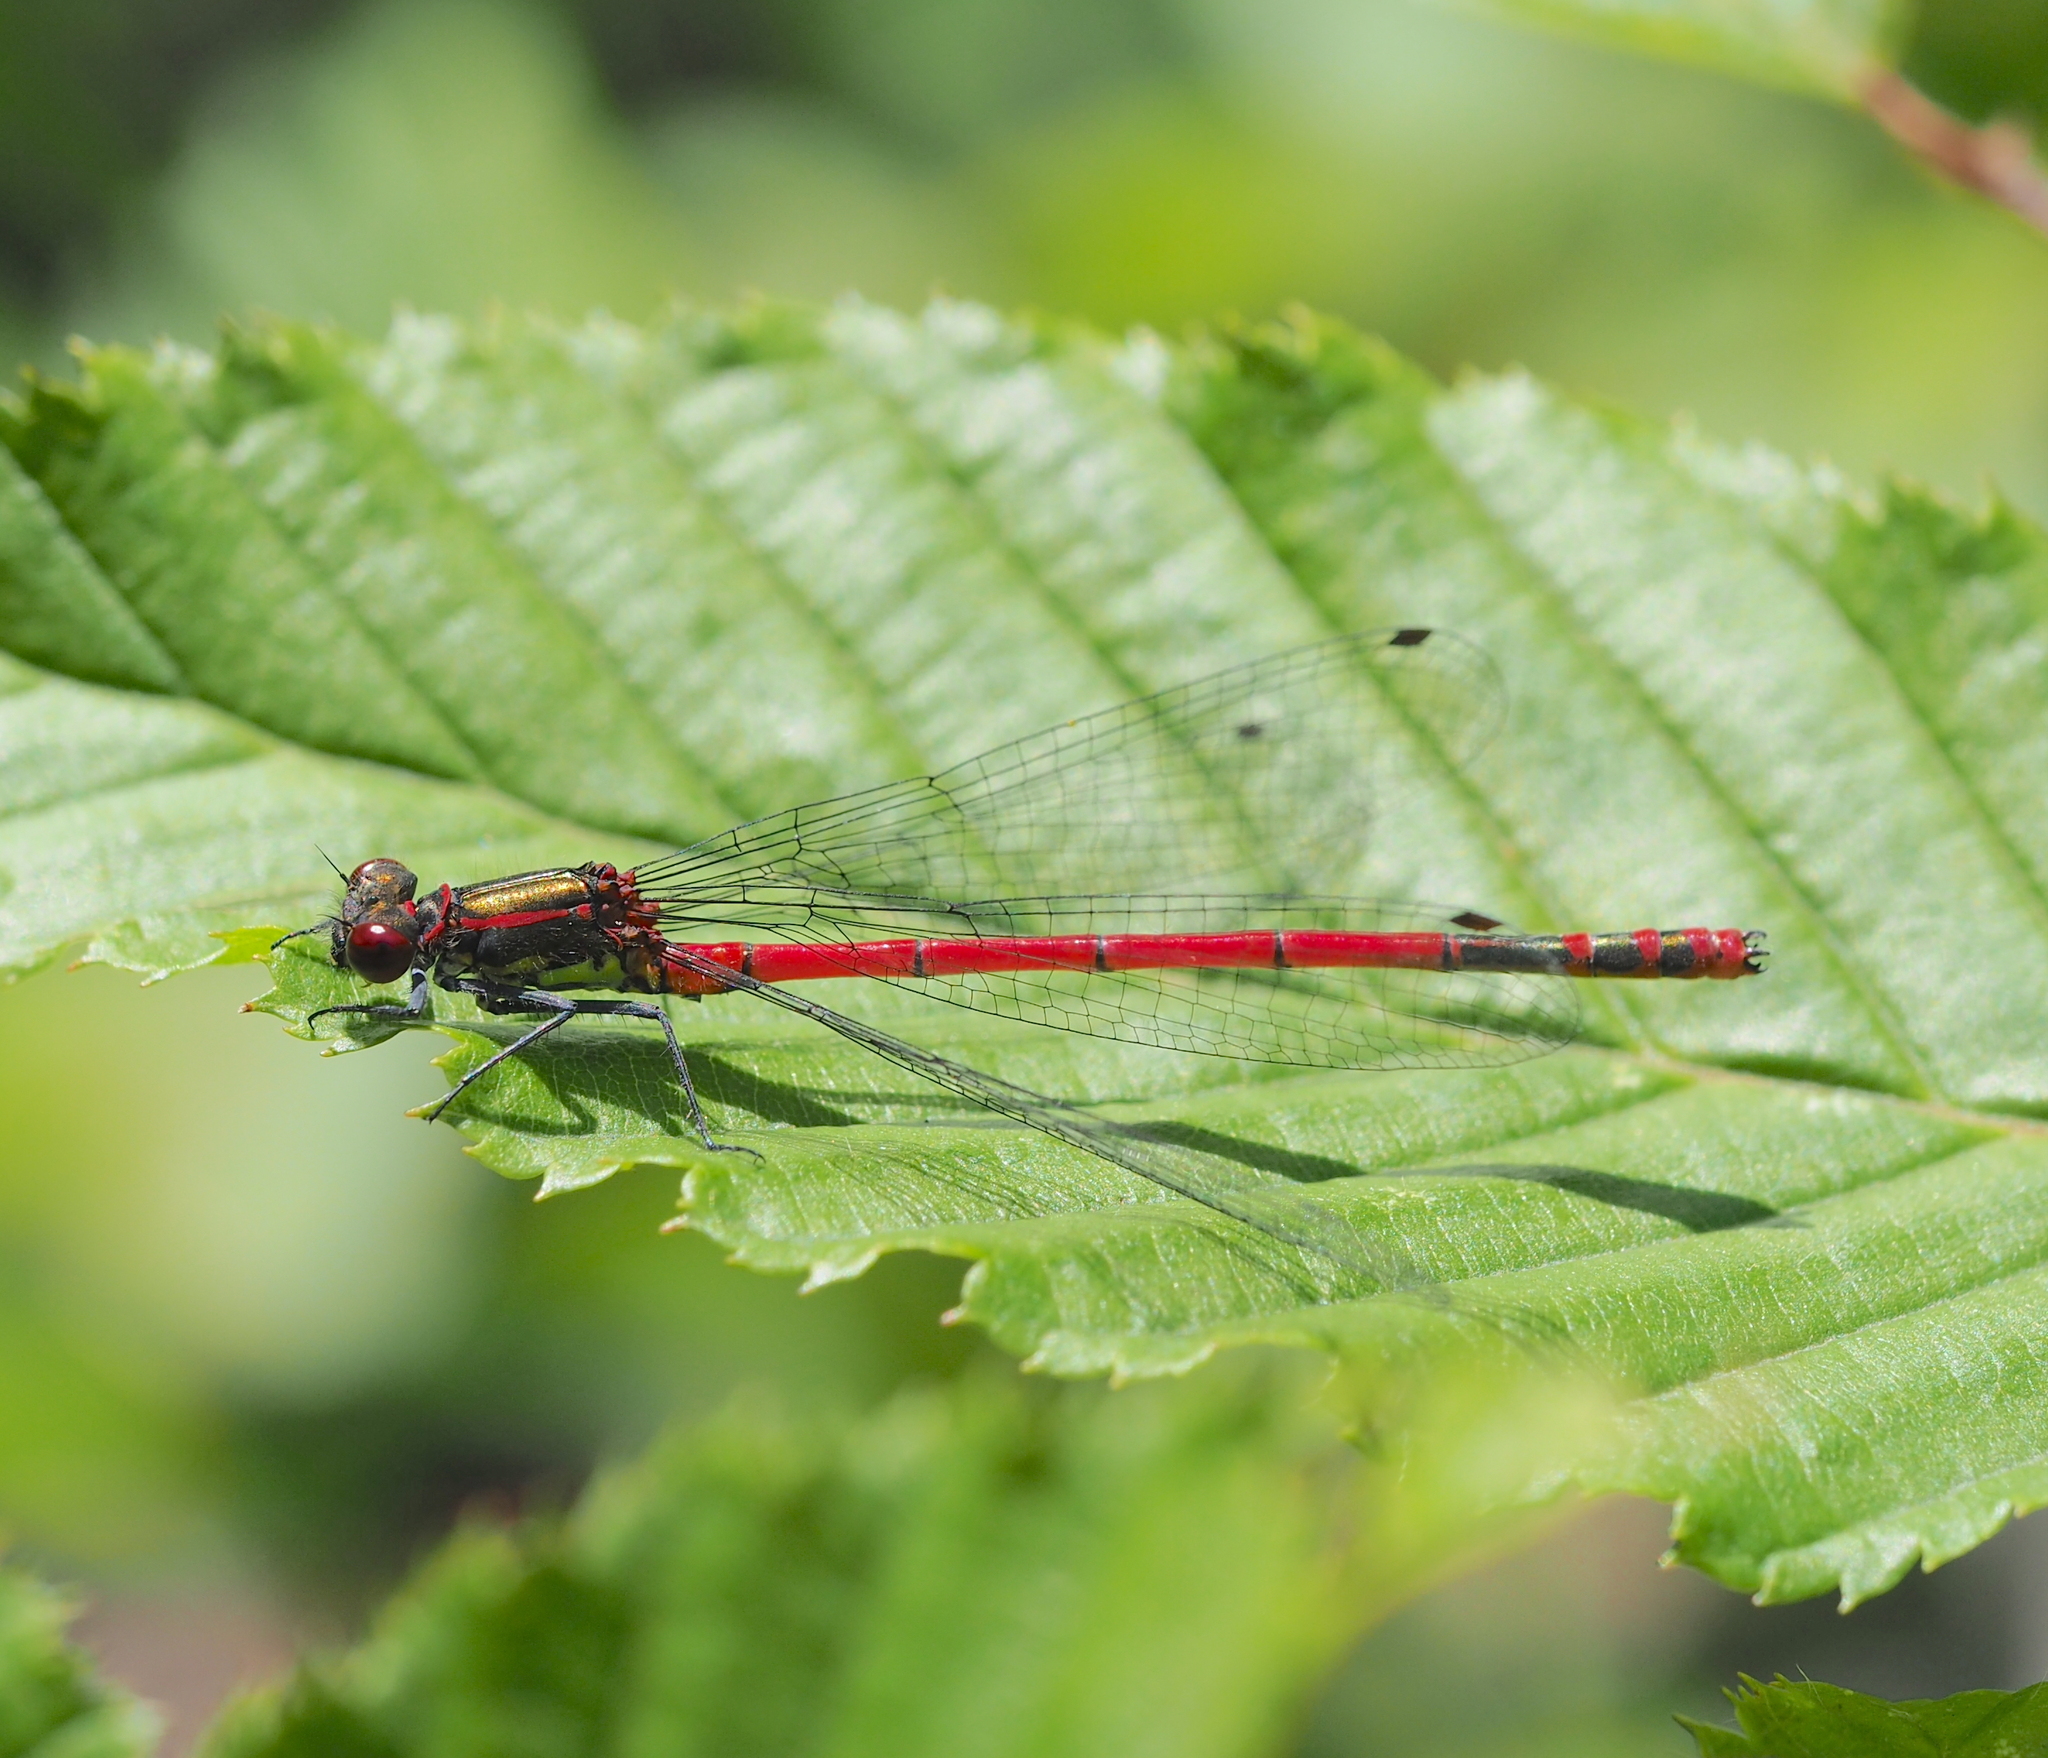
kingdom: Animalia
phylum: Arthropoda
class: Insecta
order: Odonata
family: Coenagrionidae
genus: Pyrrhosoma
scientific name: Pyrrhosoma nymphula
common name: Large red damsel
